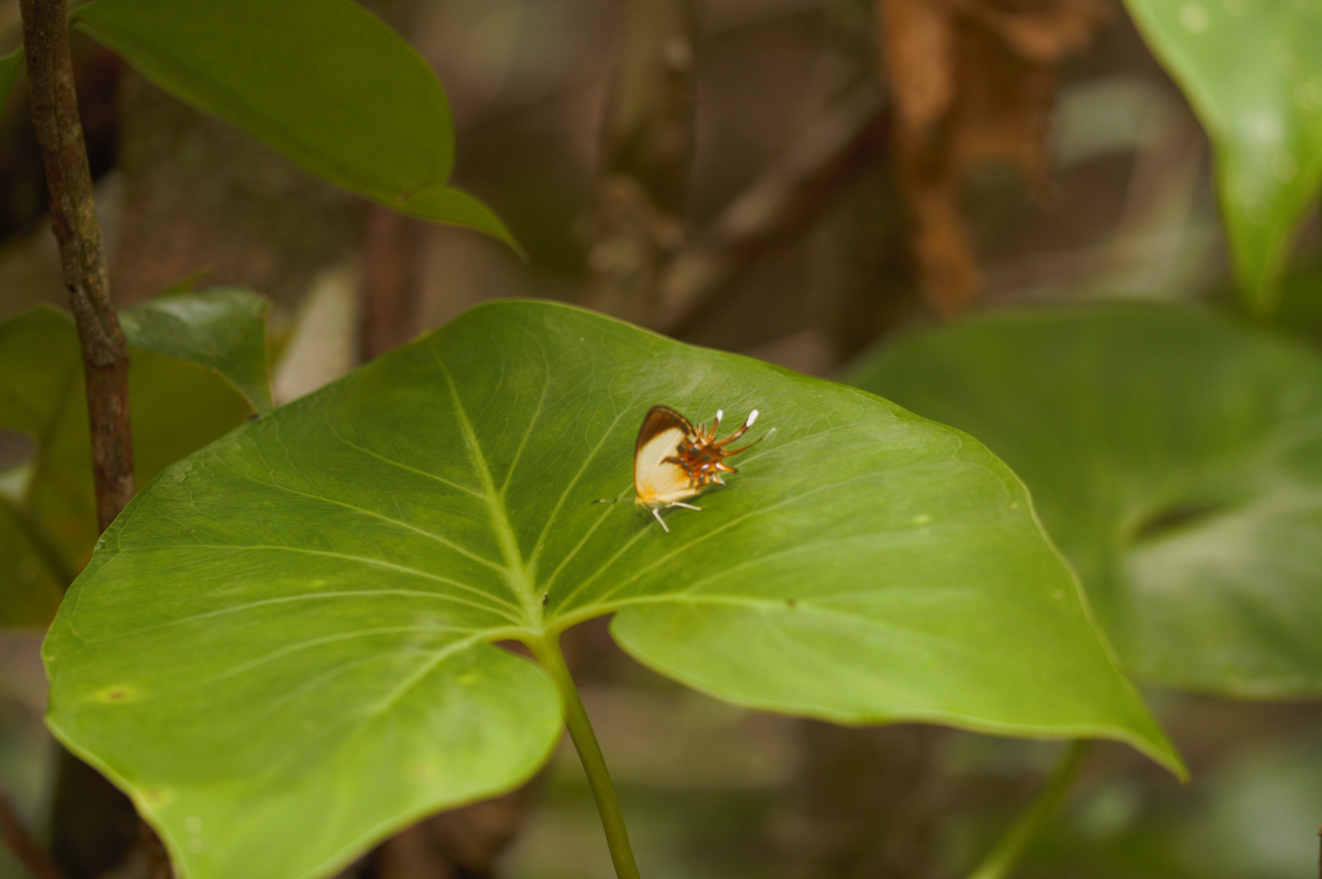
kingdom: Animalia
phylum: Arthropoda
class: Insecta
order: Lepidoptera
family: Riodinidae
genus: Helicopis
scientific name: Helicopis cupido
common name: Spangled cupid
